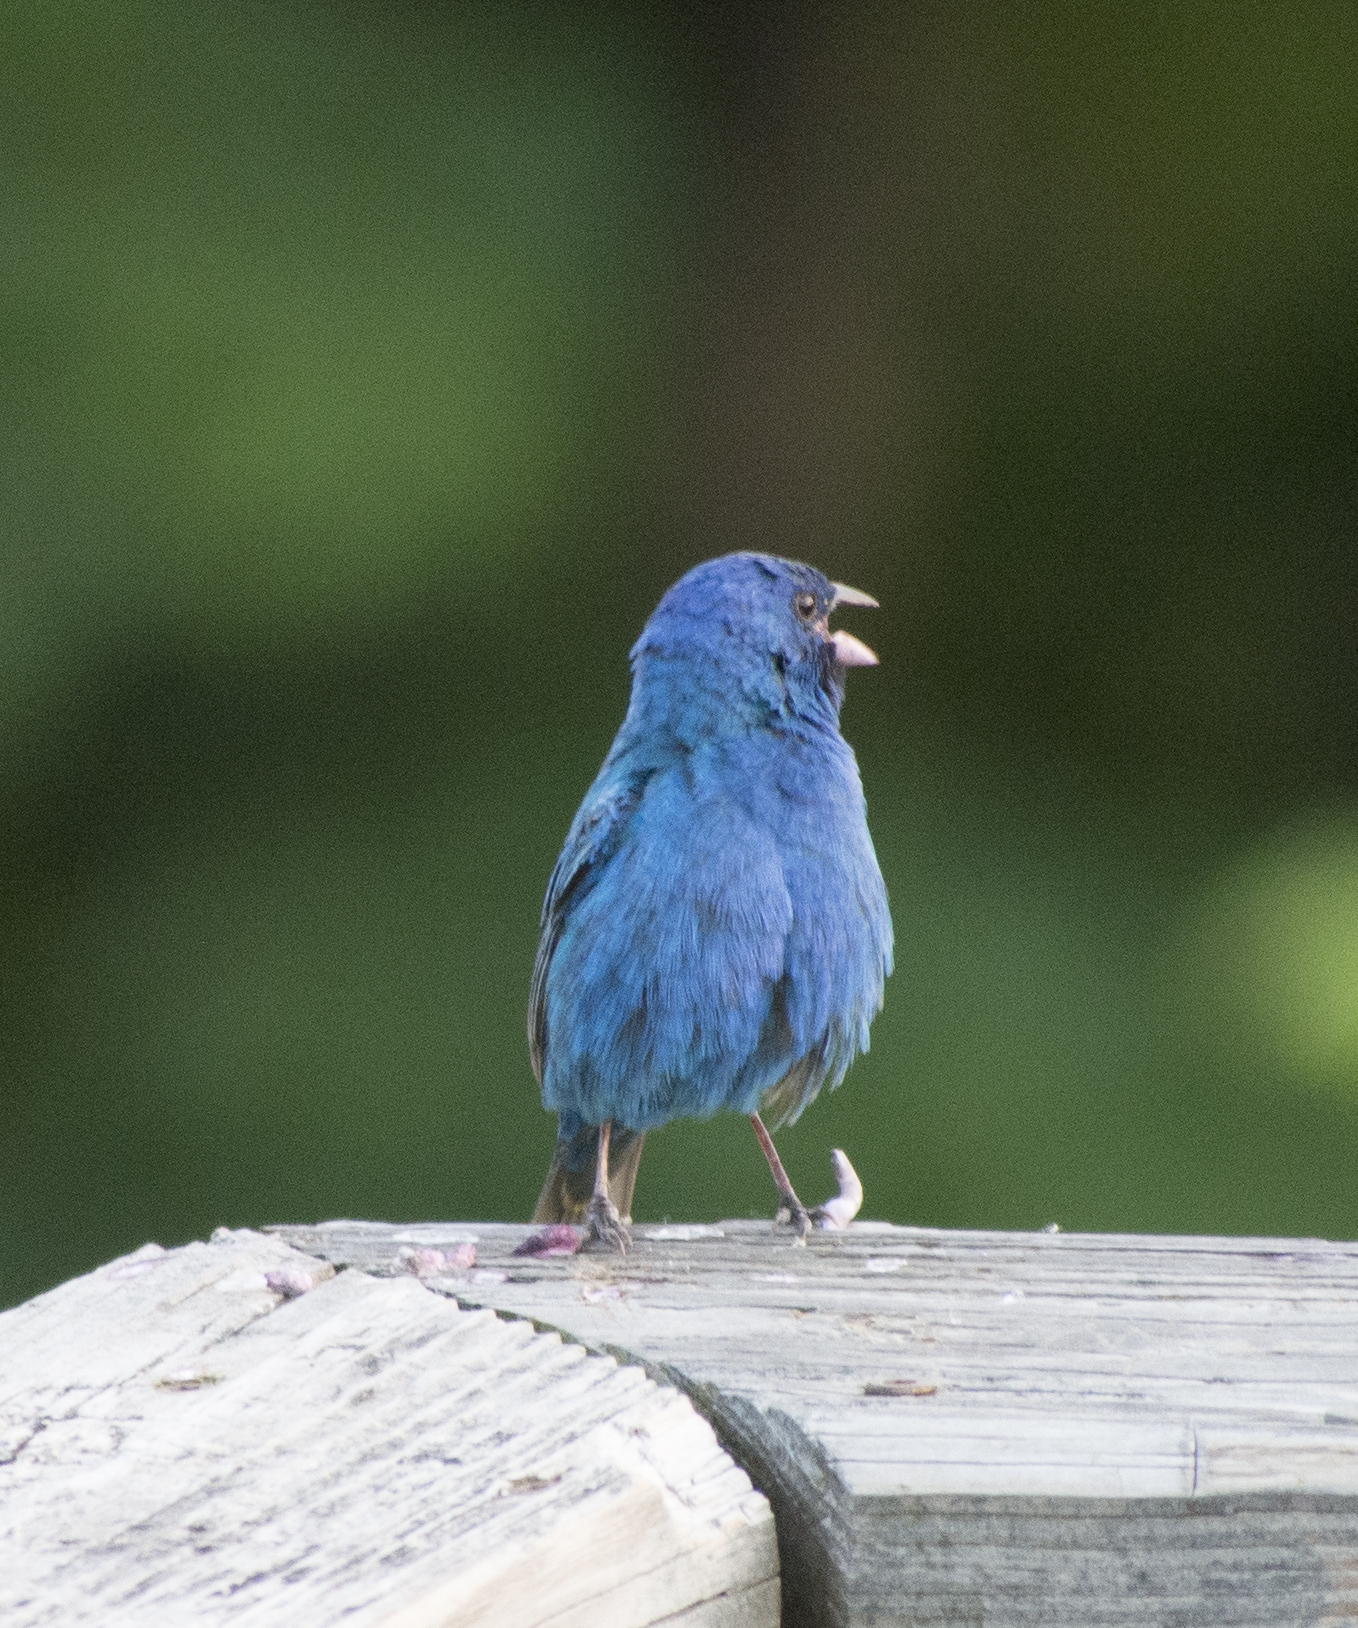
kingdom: Animalia
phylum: Chordata
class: Aves
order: Passeriformes
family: Cardinalidae
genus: Passerina
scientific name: Passerina cyanea
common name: Indigo bunting
